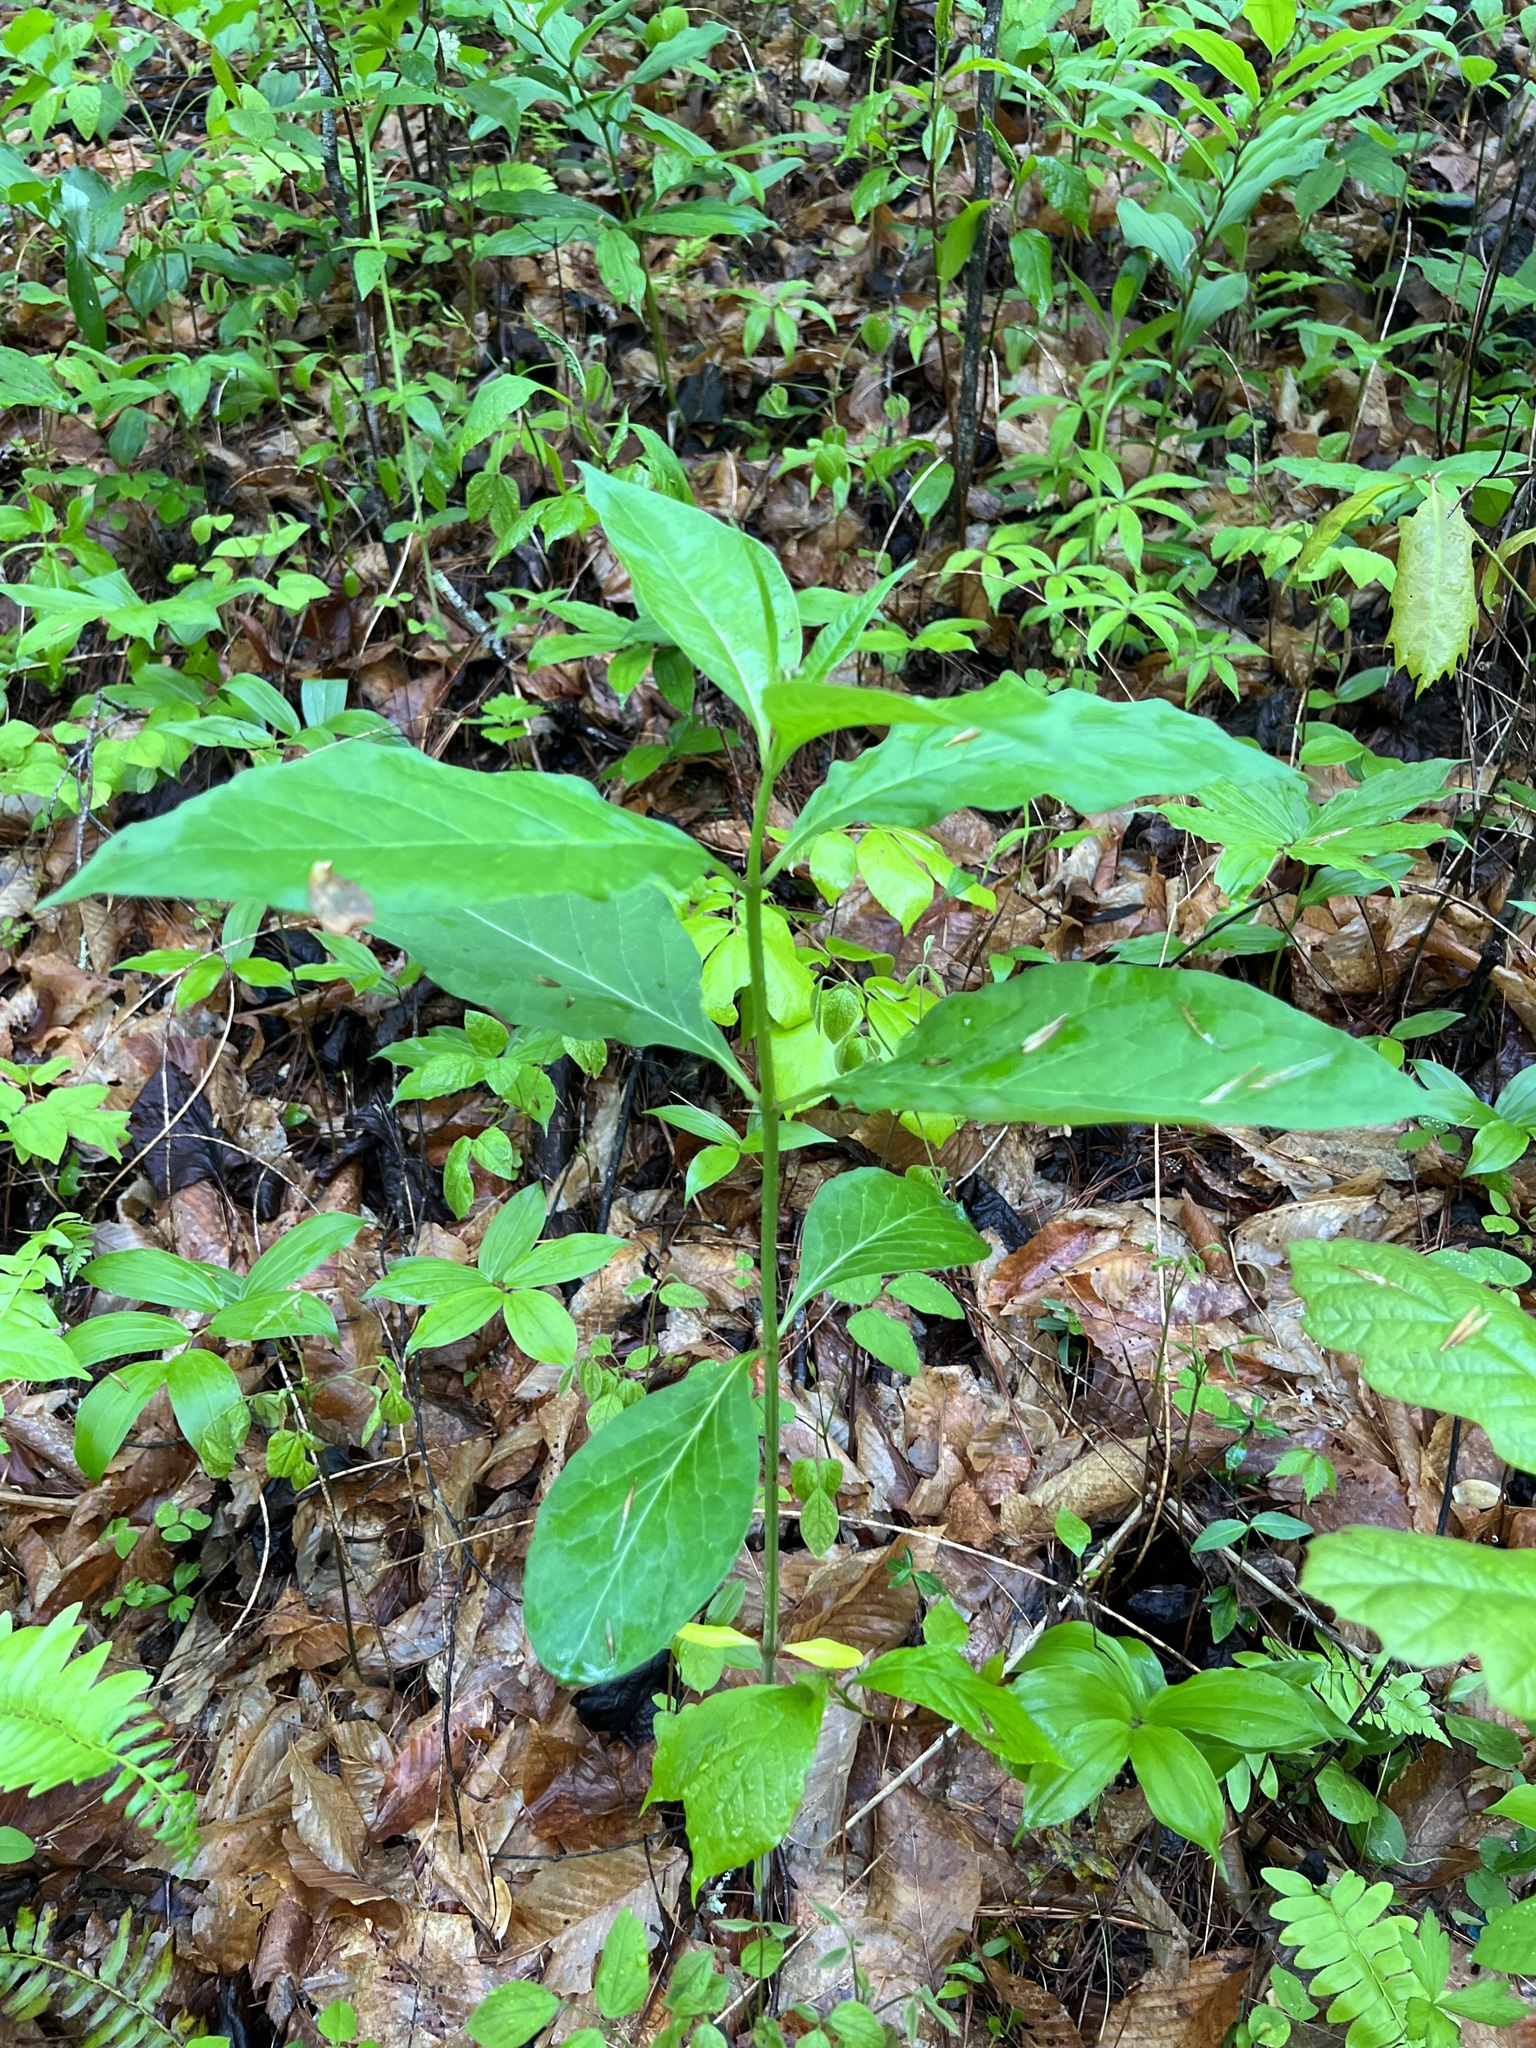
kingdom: Plantae
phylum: Tracheophyta
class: Magnoliopsida
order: Gentianales
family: Apocynaceae
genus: Asclepias
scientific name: Asclepias exaltata
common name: Poke milkweed
